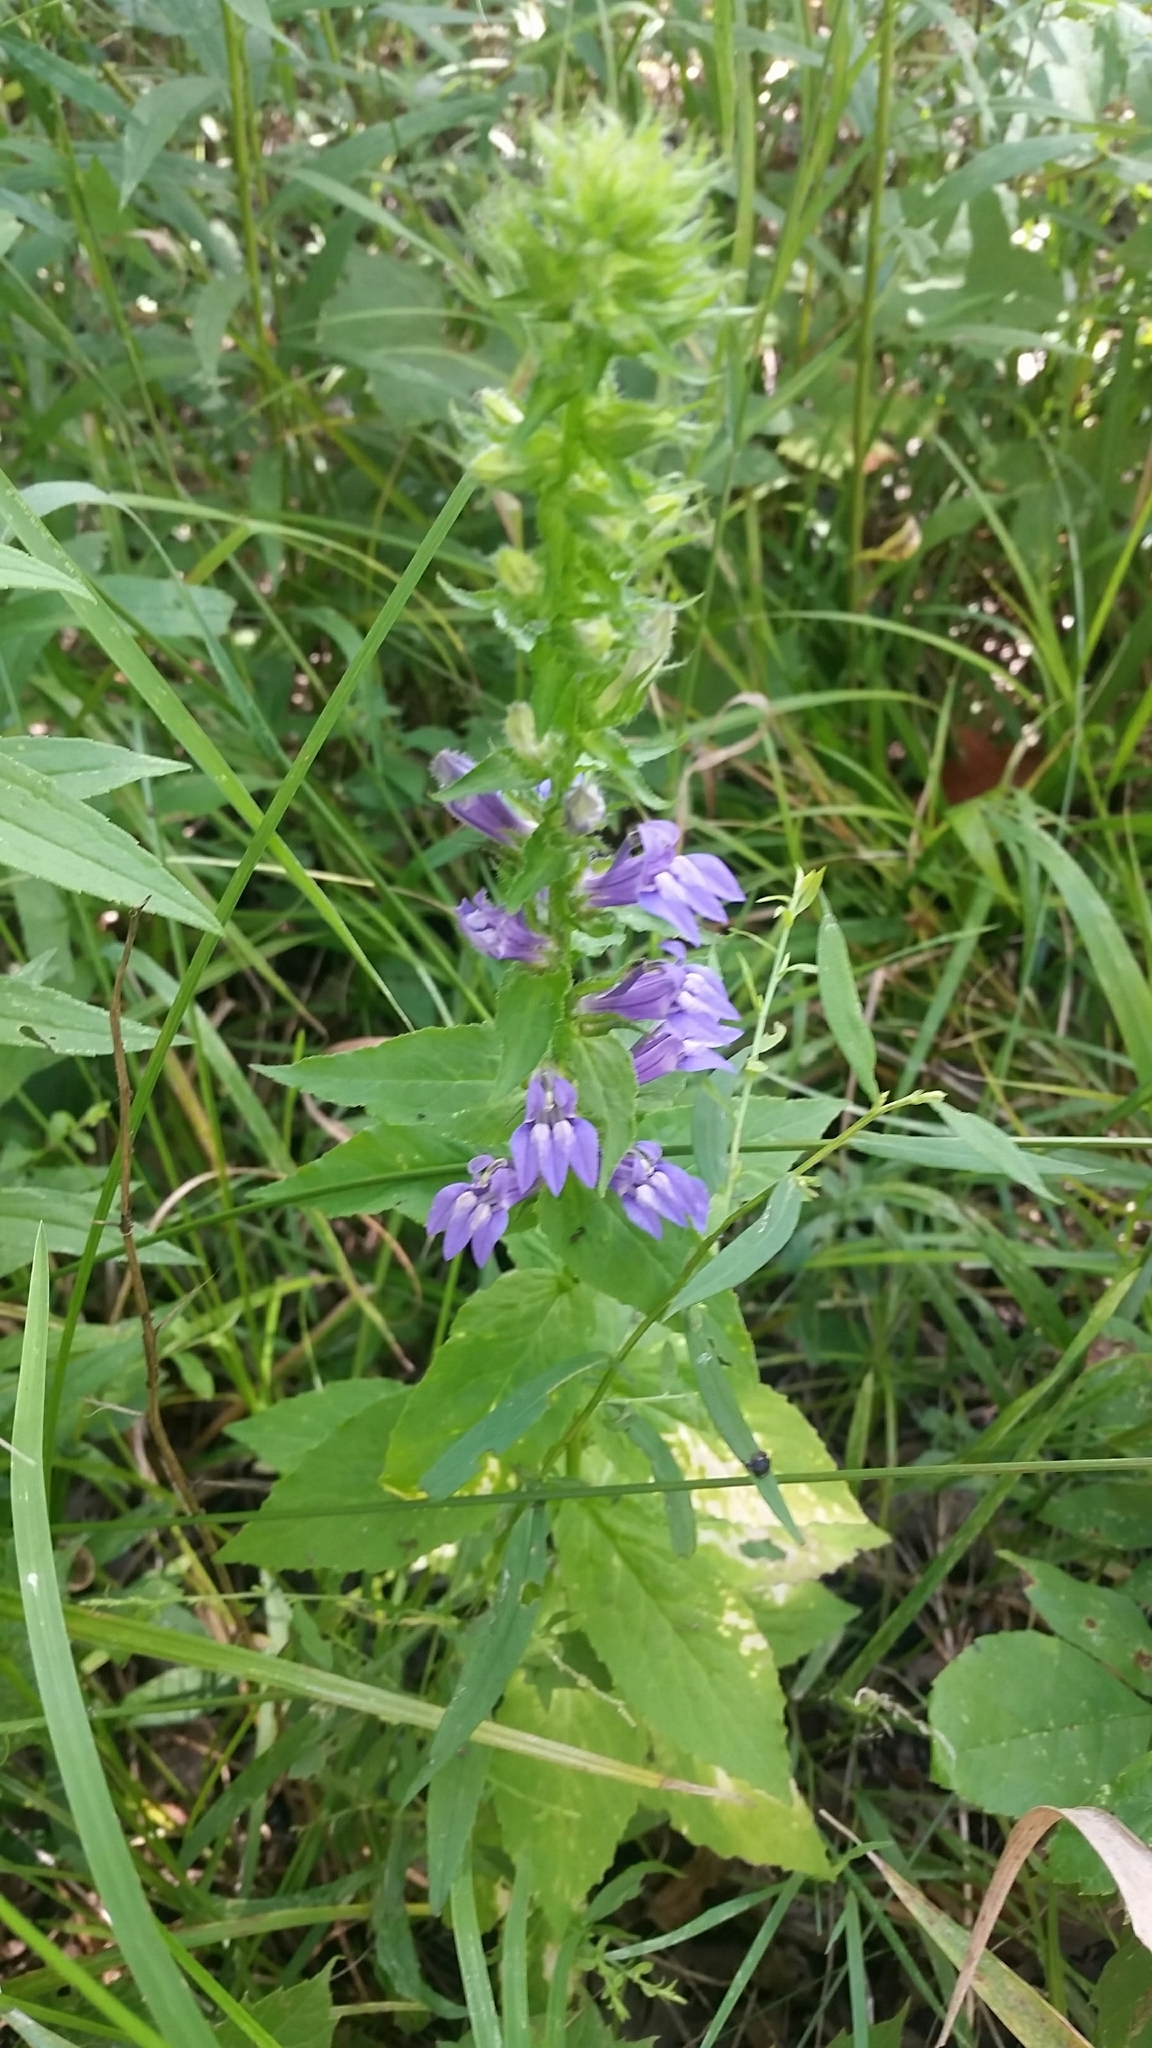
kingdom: Plantae
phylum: Tracheophyta
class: Magnoliopsida
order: Asterales
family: Campanulaceae
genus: Lobelia
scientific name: Lobelia siphilitica
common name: Great lobelia
